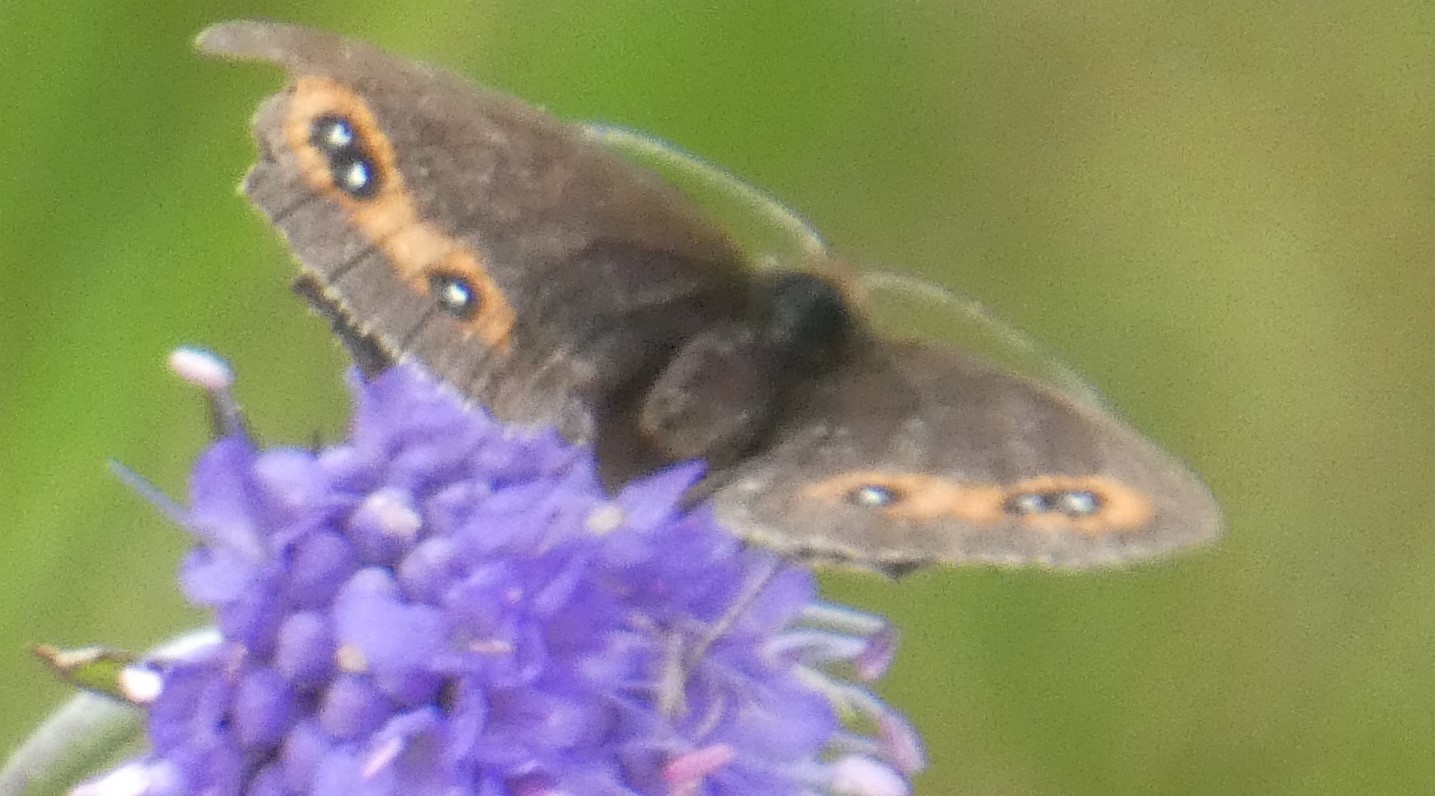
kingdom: Animalia
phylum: Arthropoda
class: Insecta
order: Lepidoptera
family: Nymphalidae
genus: Erebia
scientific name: Erebia aethiops
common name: Scotch argus
